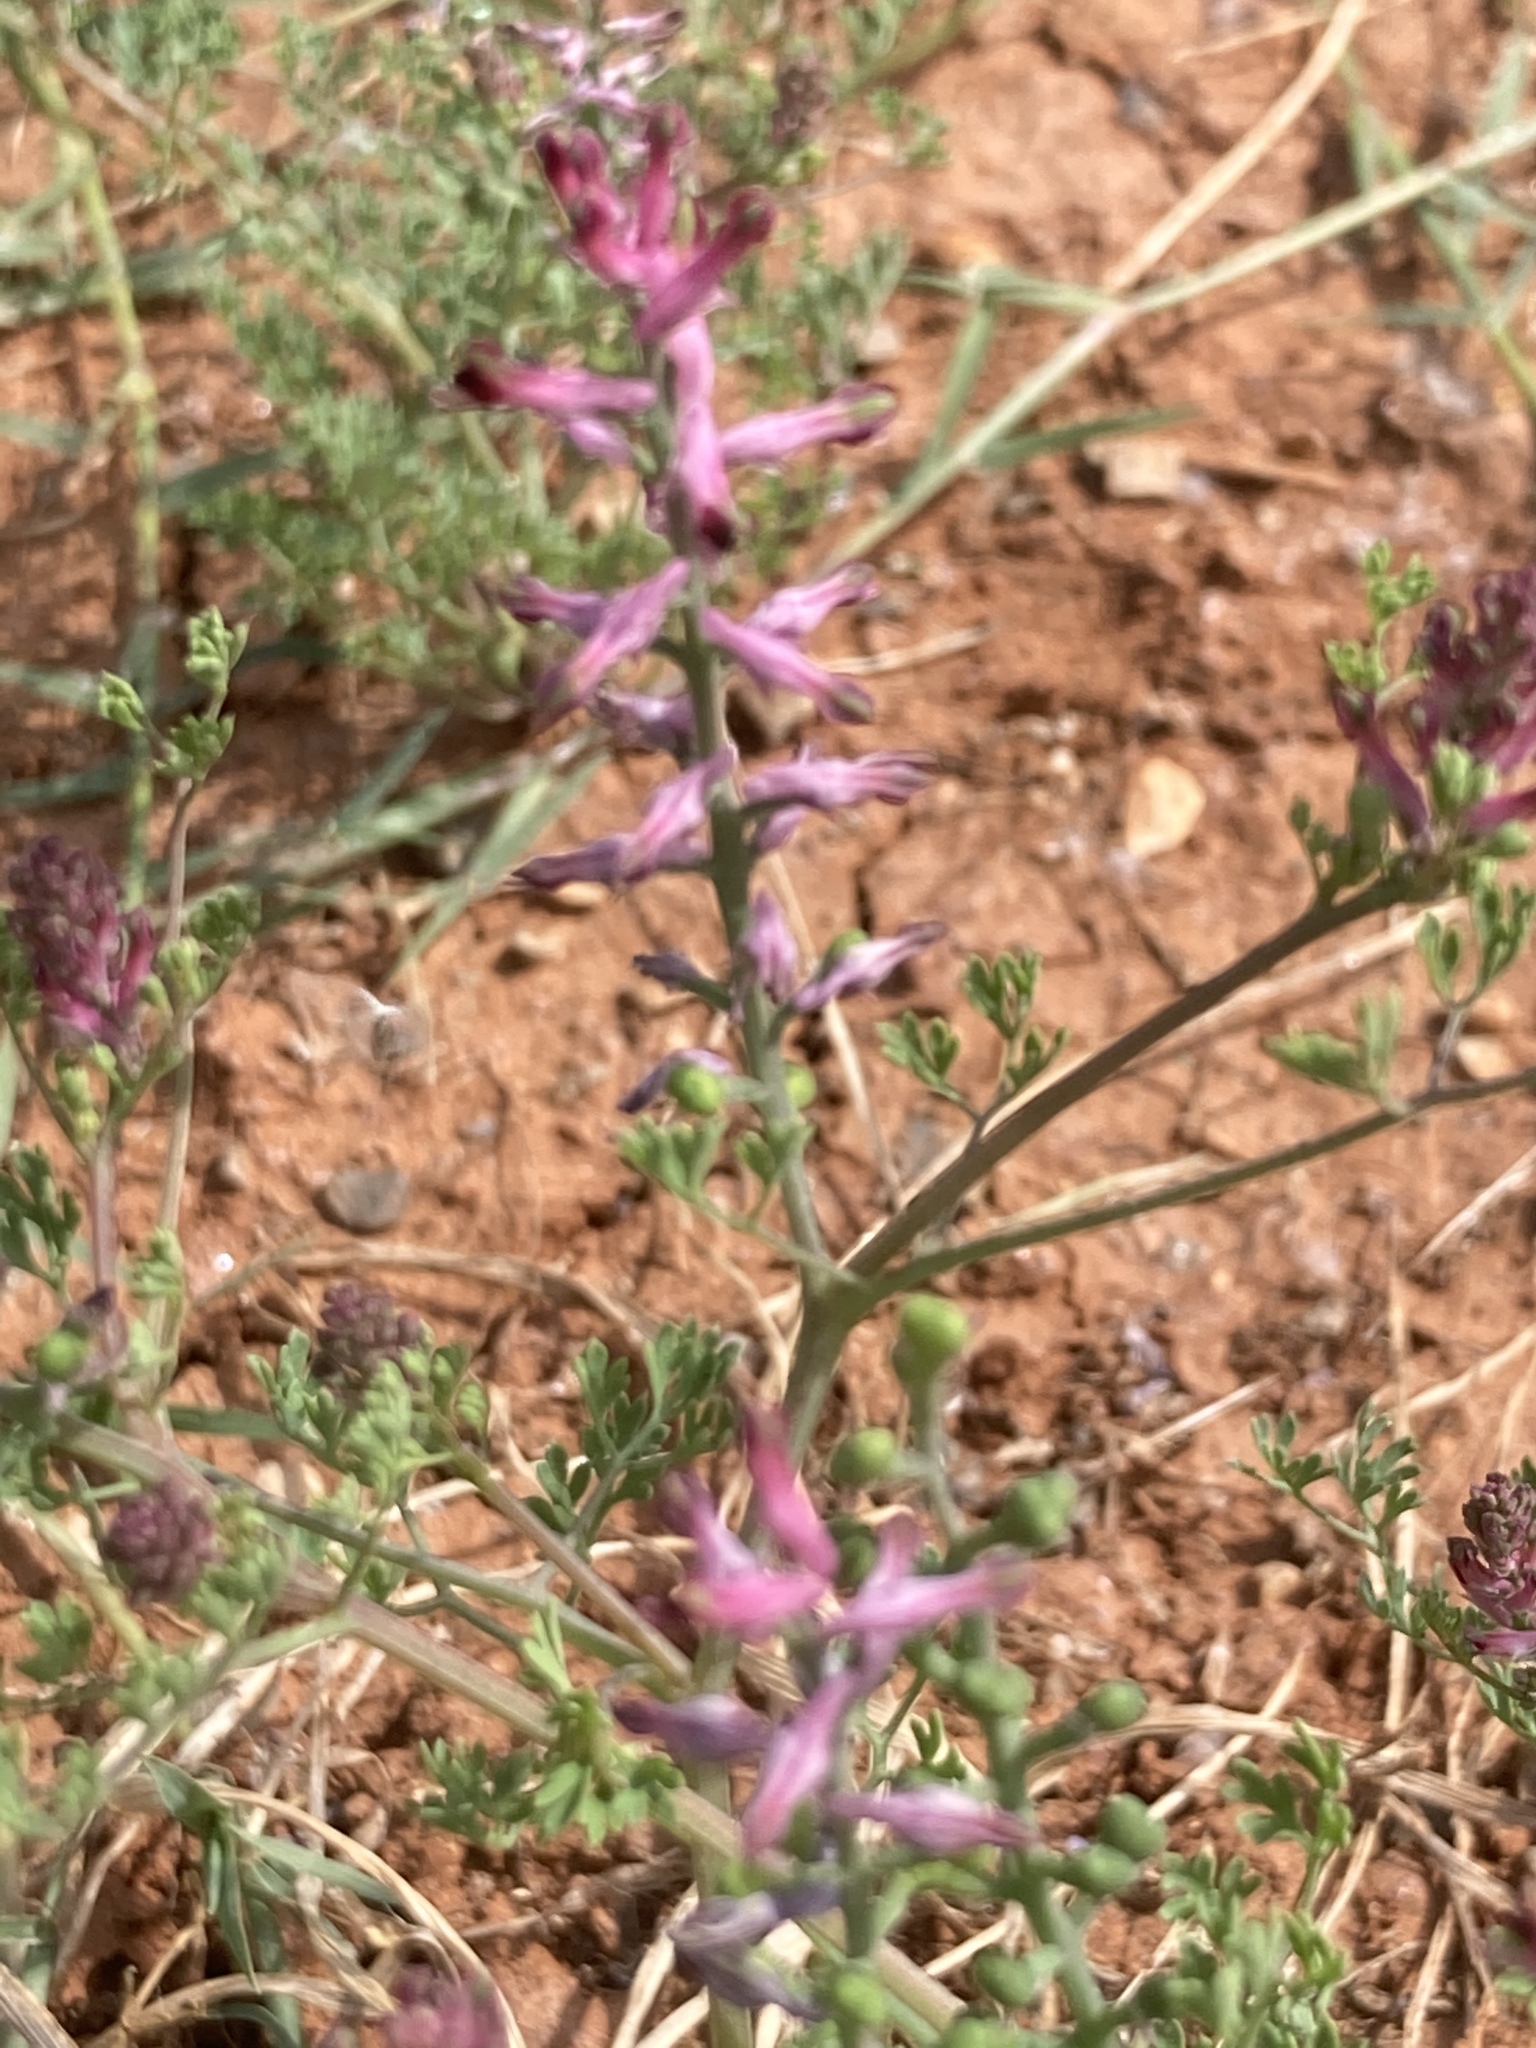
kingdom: Plantae
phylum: Tracheophyta
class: Magnoliopsida
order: Ranunculales
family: Papaveraceae
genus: Fumaria
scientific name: Fumaria officinalis
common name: Common fumitory
